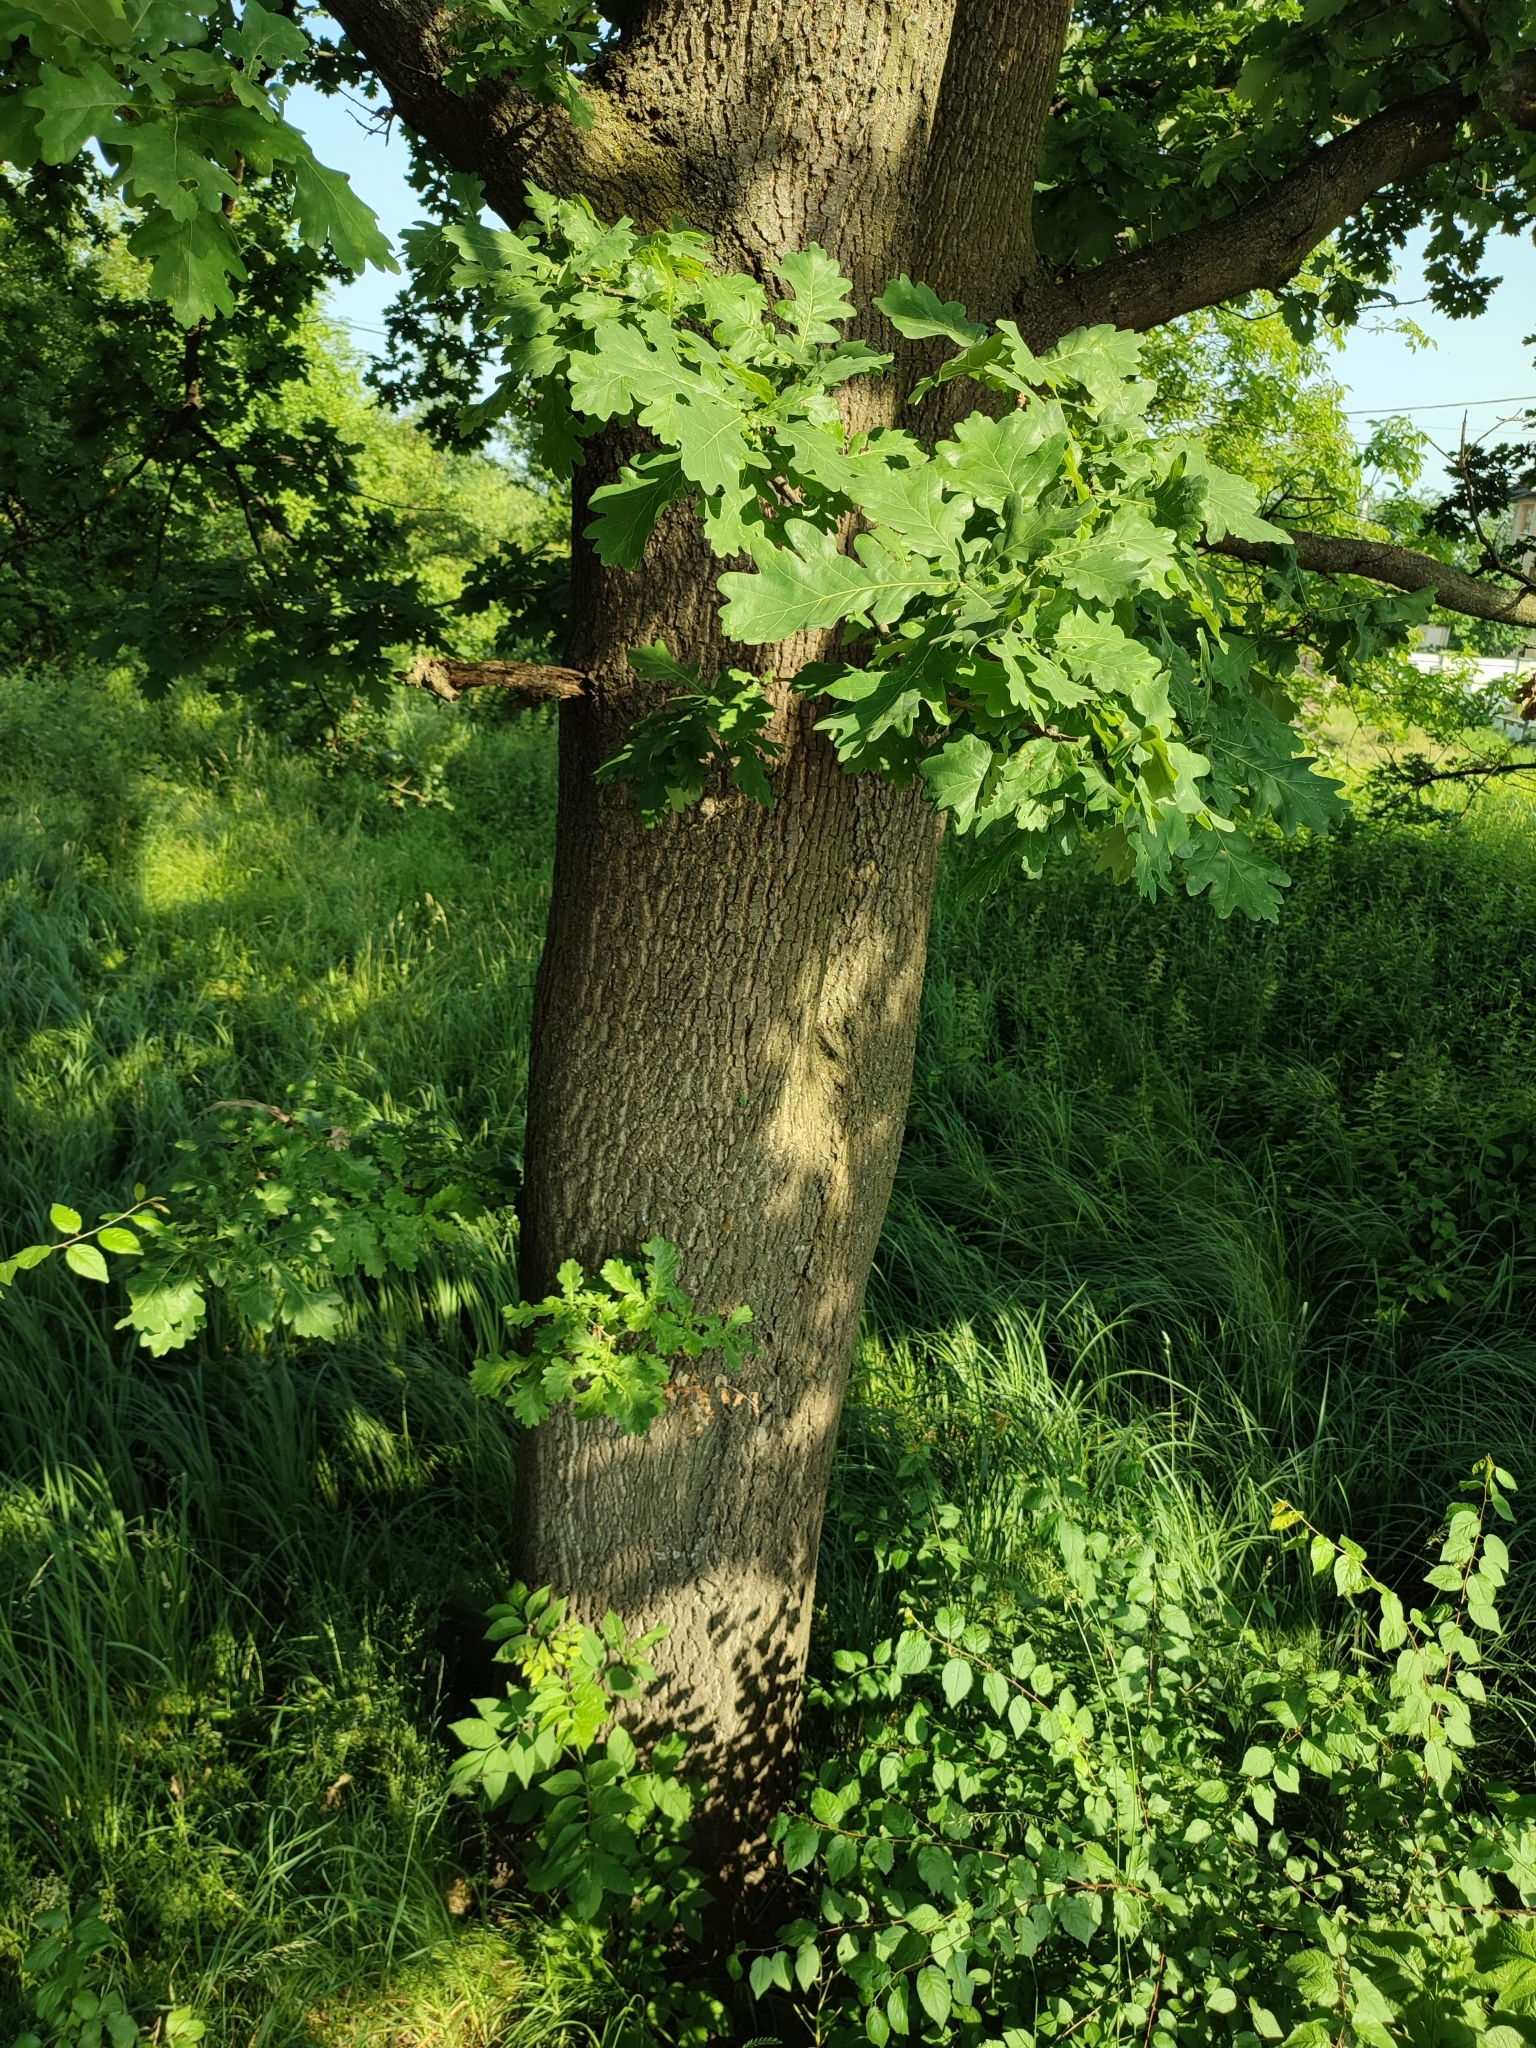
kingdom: Plantae
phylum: Tracheophyta
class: Magnoliopsida
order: Fagales
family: Fagaceae
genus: Quercus
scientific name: Quercus robur
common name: Pedunculate oak
